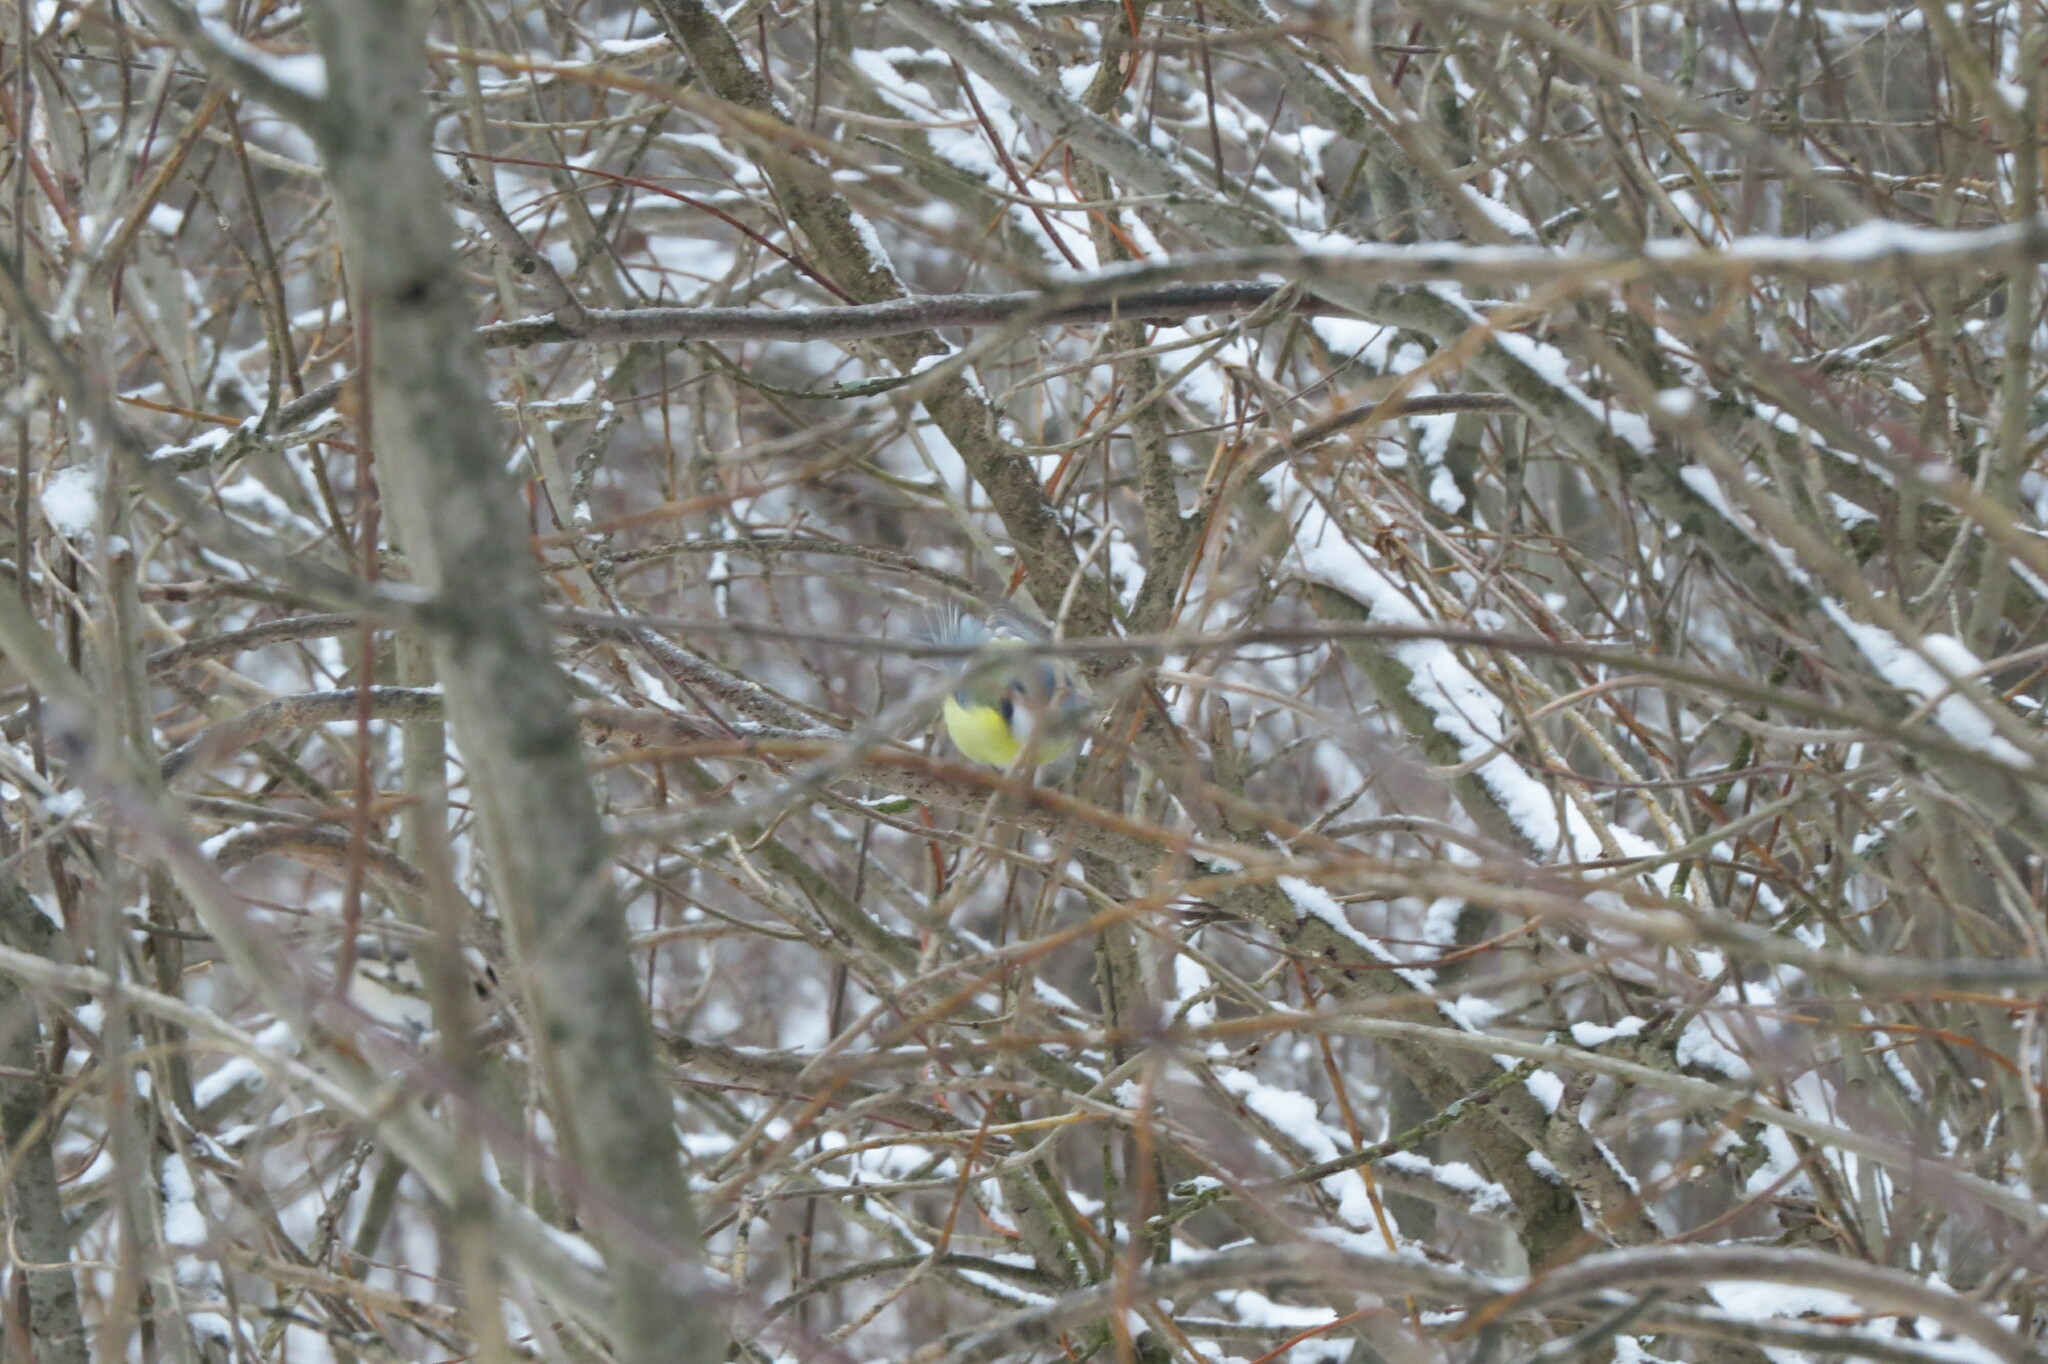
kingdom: Animalia
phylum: Chordata
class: Aves
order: Passeriformes
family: Paridae
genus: Cyanistes
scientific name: Cyanistes caeruleus
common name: Eurasian blue tit
